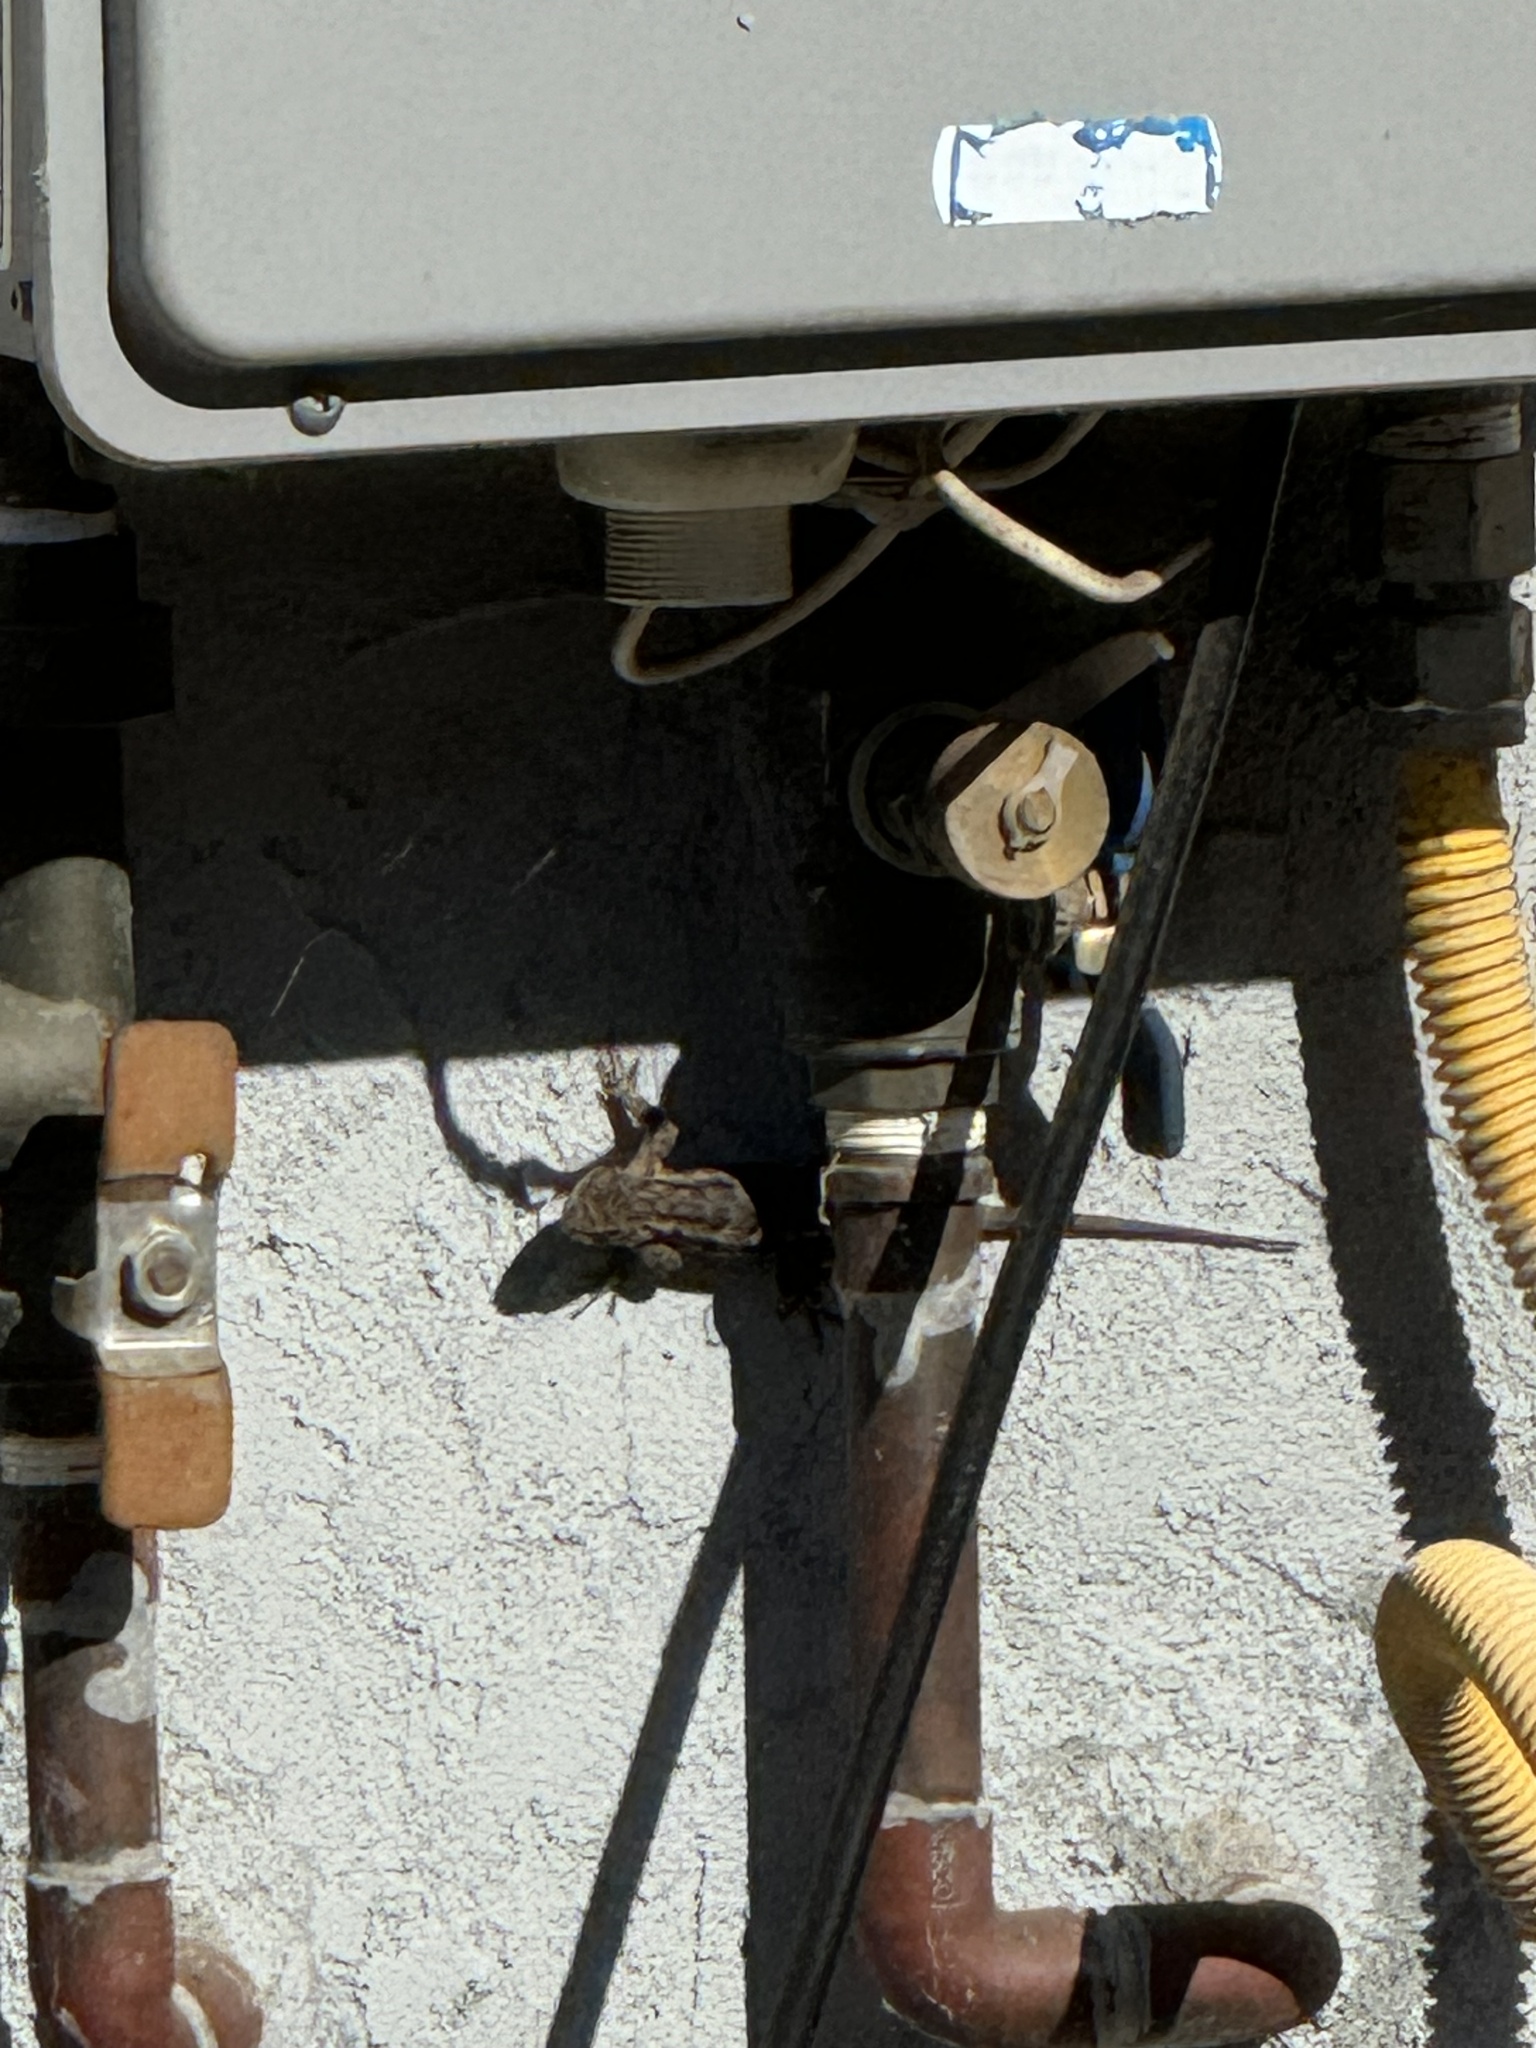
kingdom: Animalia
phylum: Chordata
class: Squamata
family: Phrynosomatidae
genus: Sceloporus
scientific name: Sceloporus occidentalis
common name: Western fence lizard
